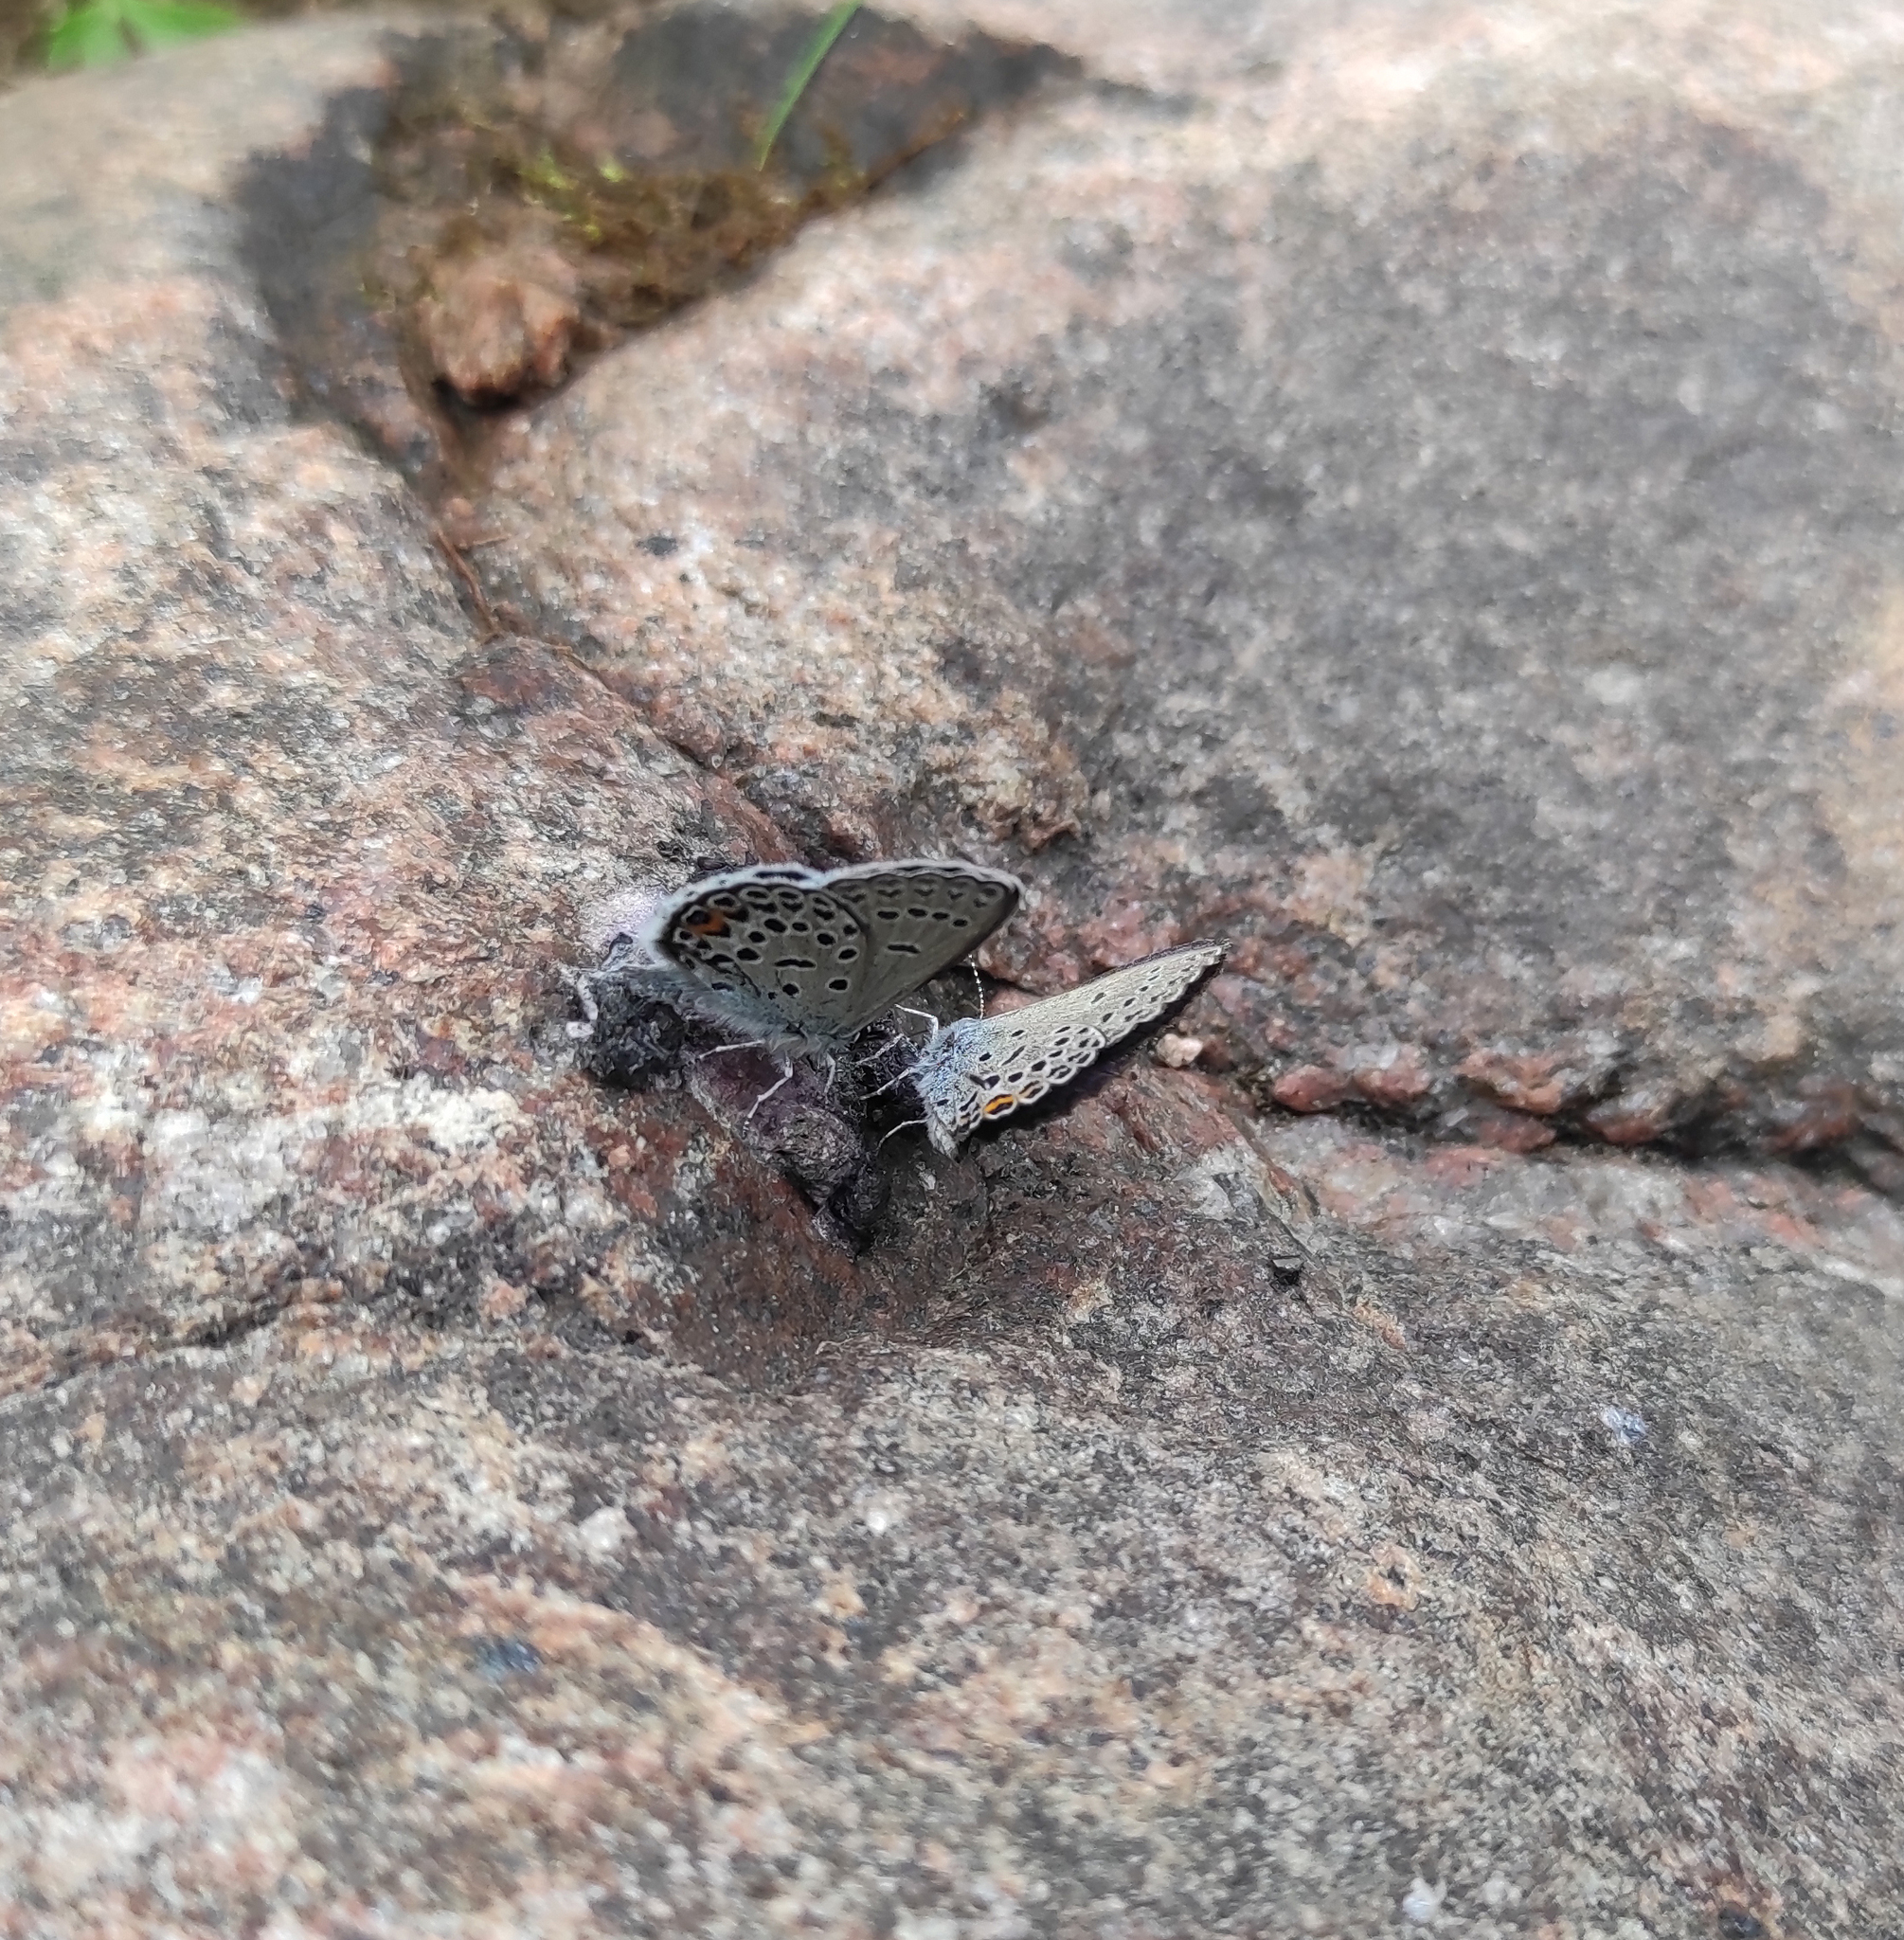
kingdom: Animalia
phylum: Arthropoda
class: Insecta
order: Lepidoptera
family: Lycaenidae
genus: Vacciniina
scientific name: Vacciniina optilete
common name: Cranberry blue
